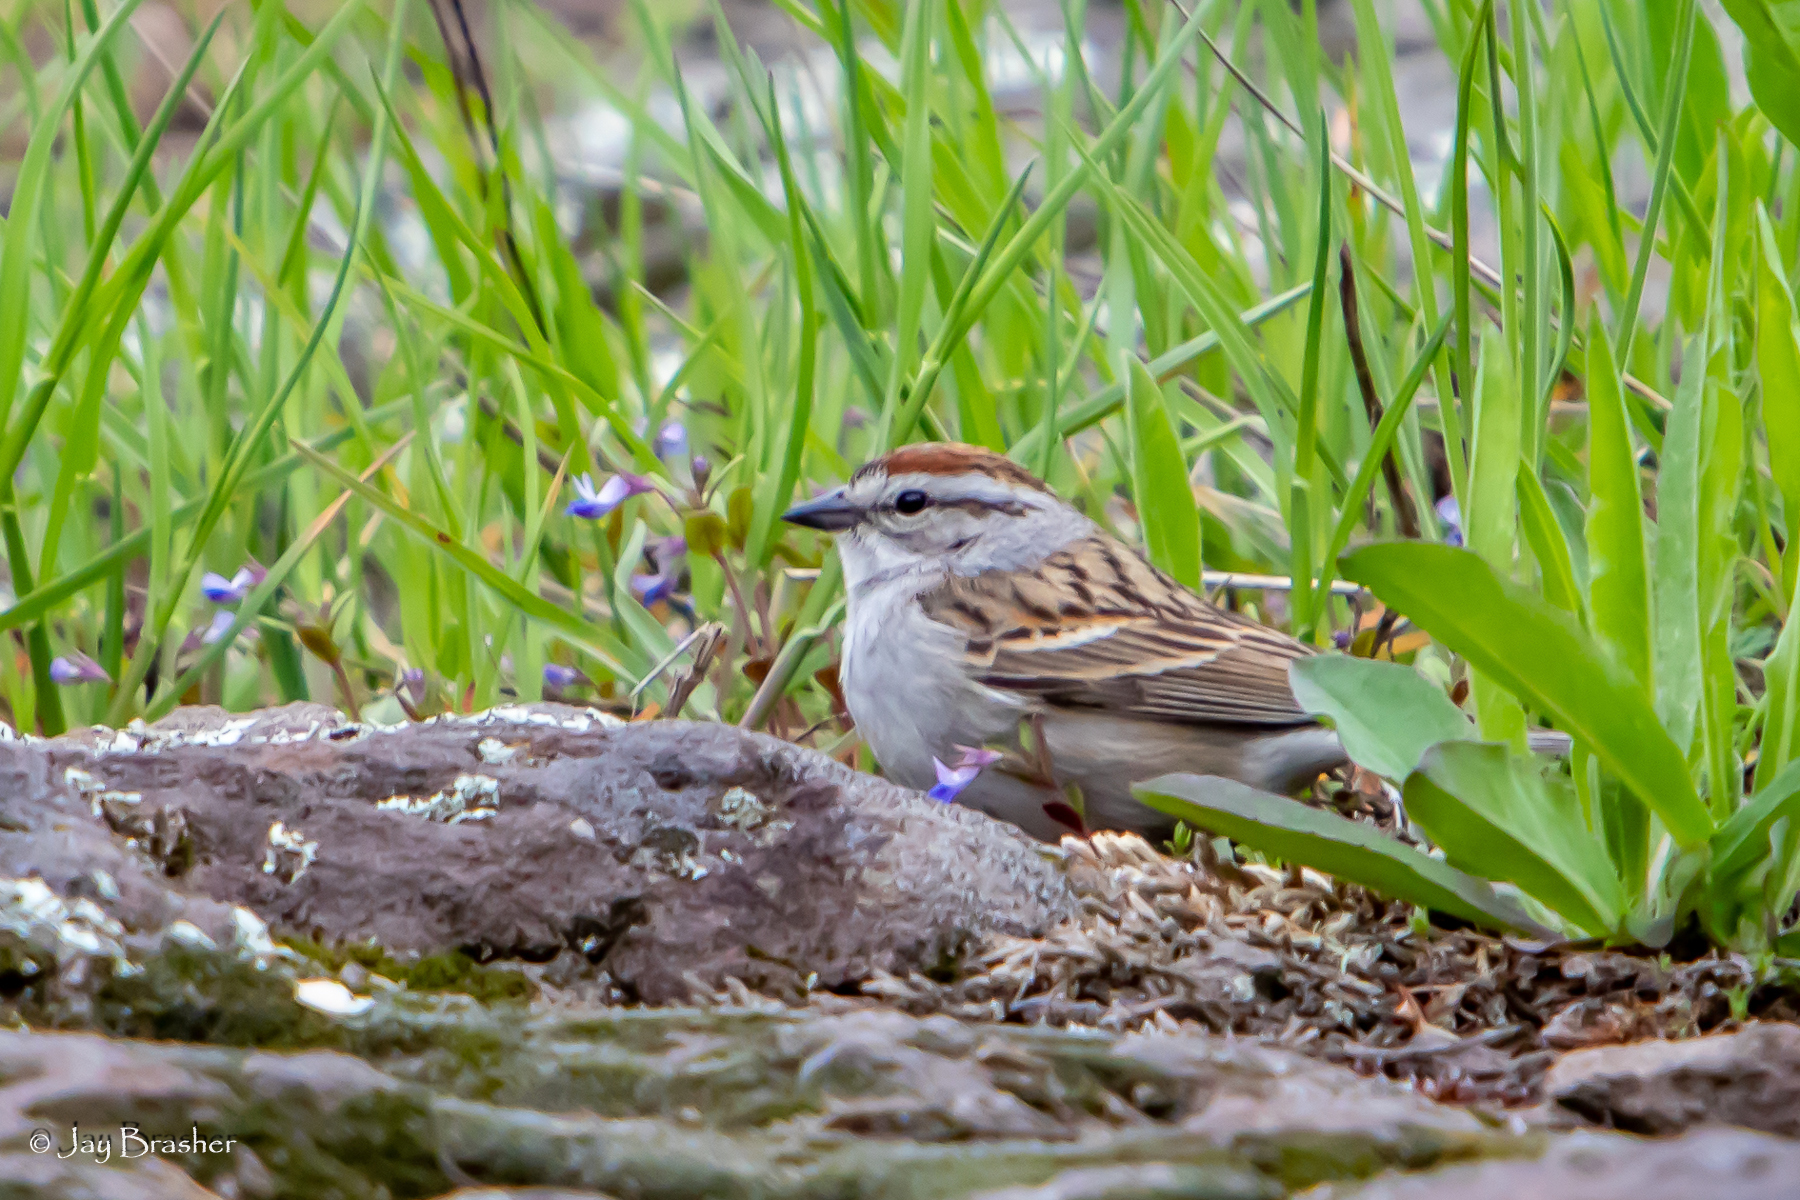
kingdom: Animalia
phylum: Chordata
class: Aves
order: Passeriformes
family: Passerellidae
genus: Spizella
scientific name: Spizella passerina
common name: Chipping sparrow
